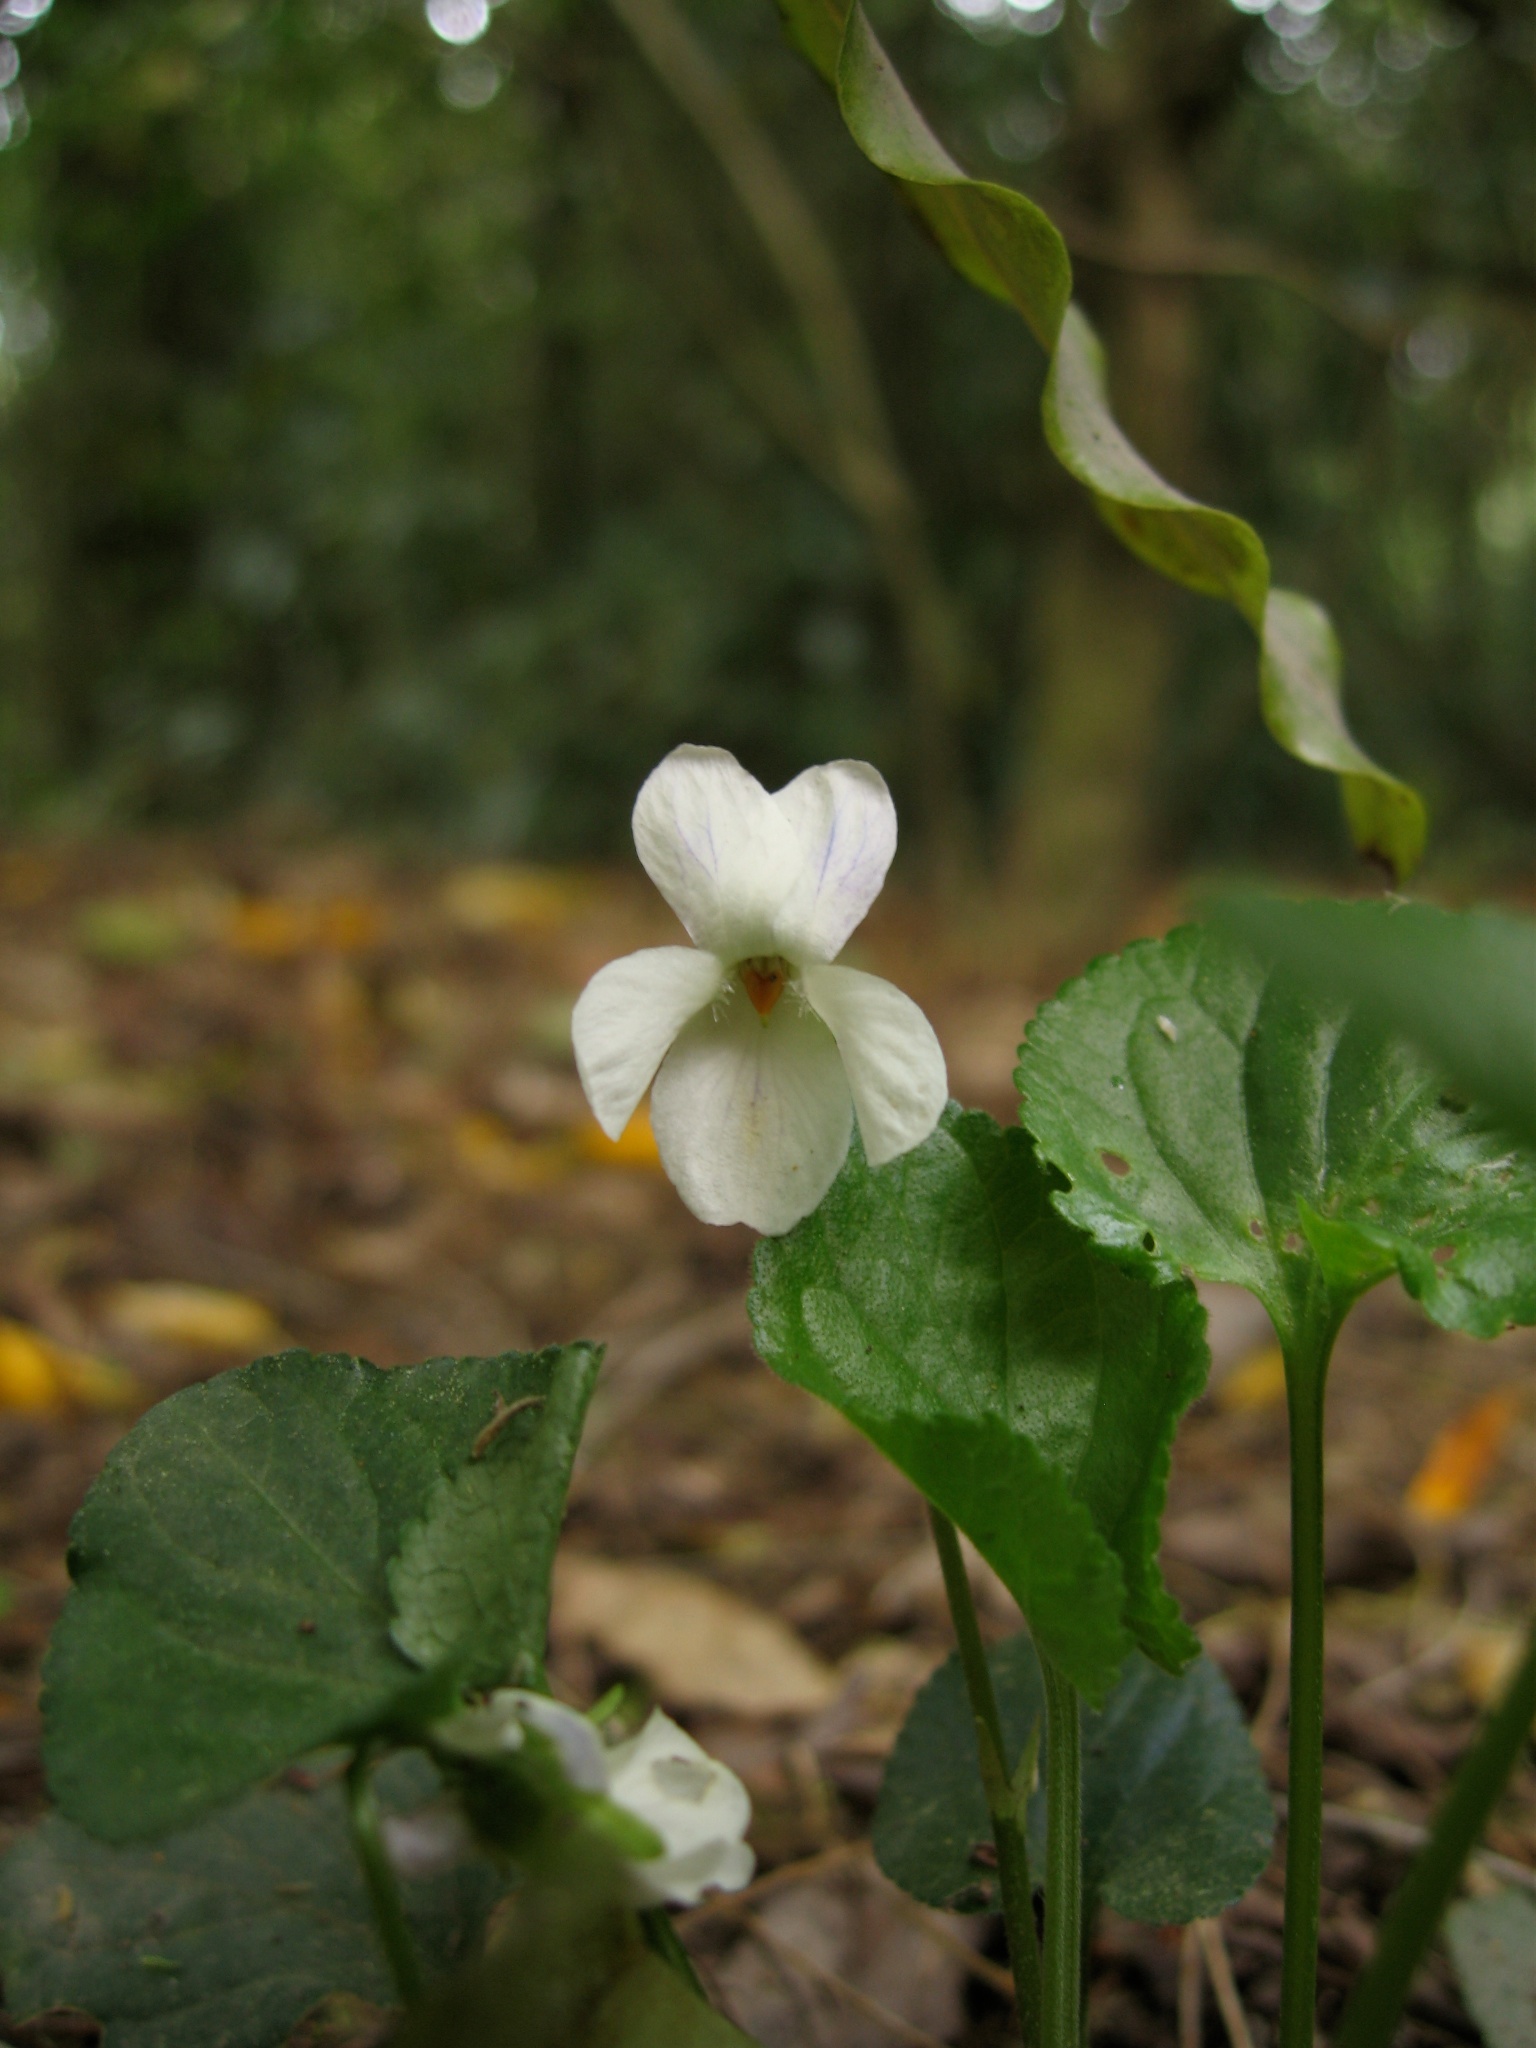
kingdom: Plantae
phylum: Tracheophyta
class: Magnoliopsida
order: Malpighiales
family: Violaceae
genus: Viola
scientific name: Viola odorata
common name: Sweet violet
